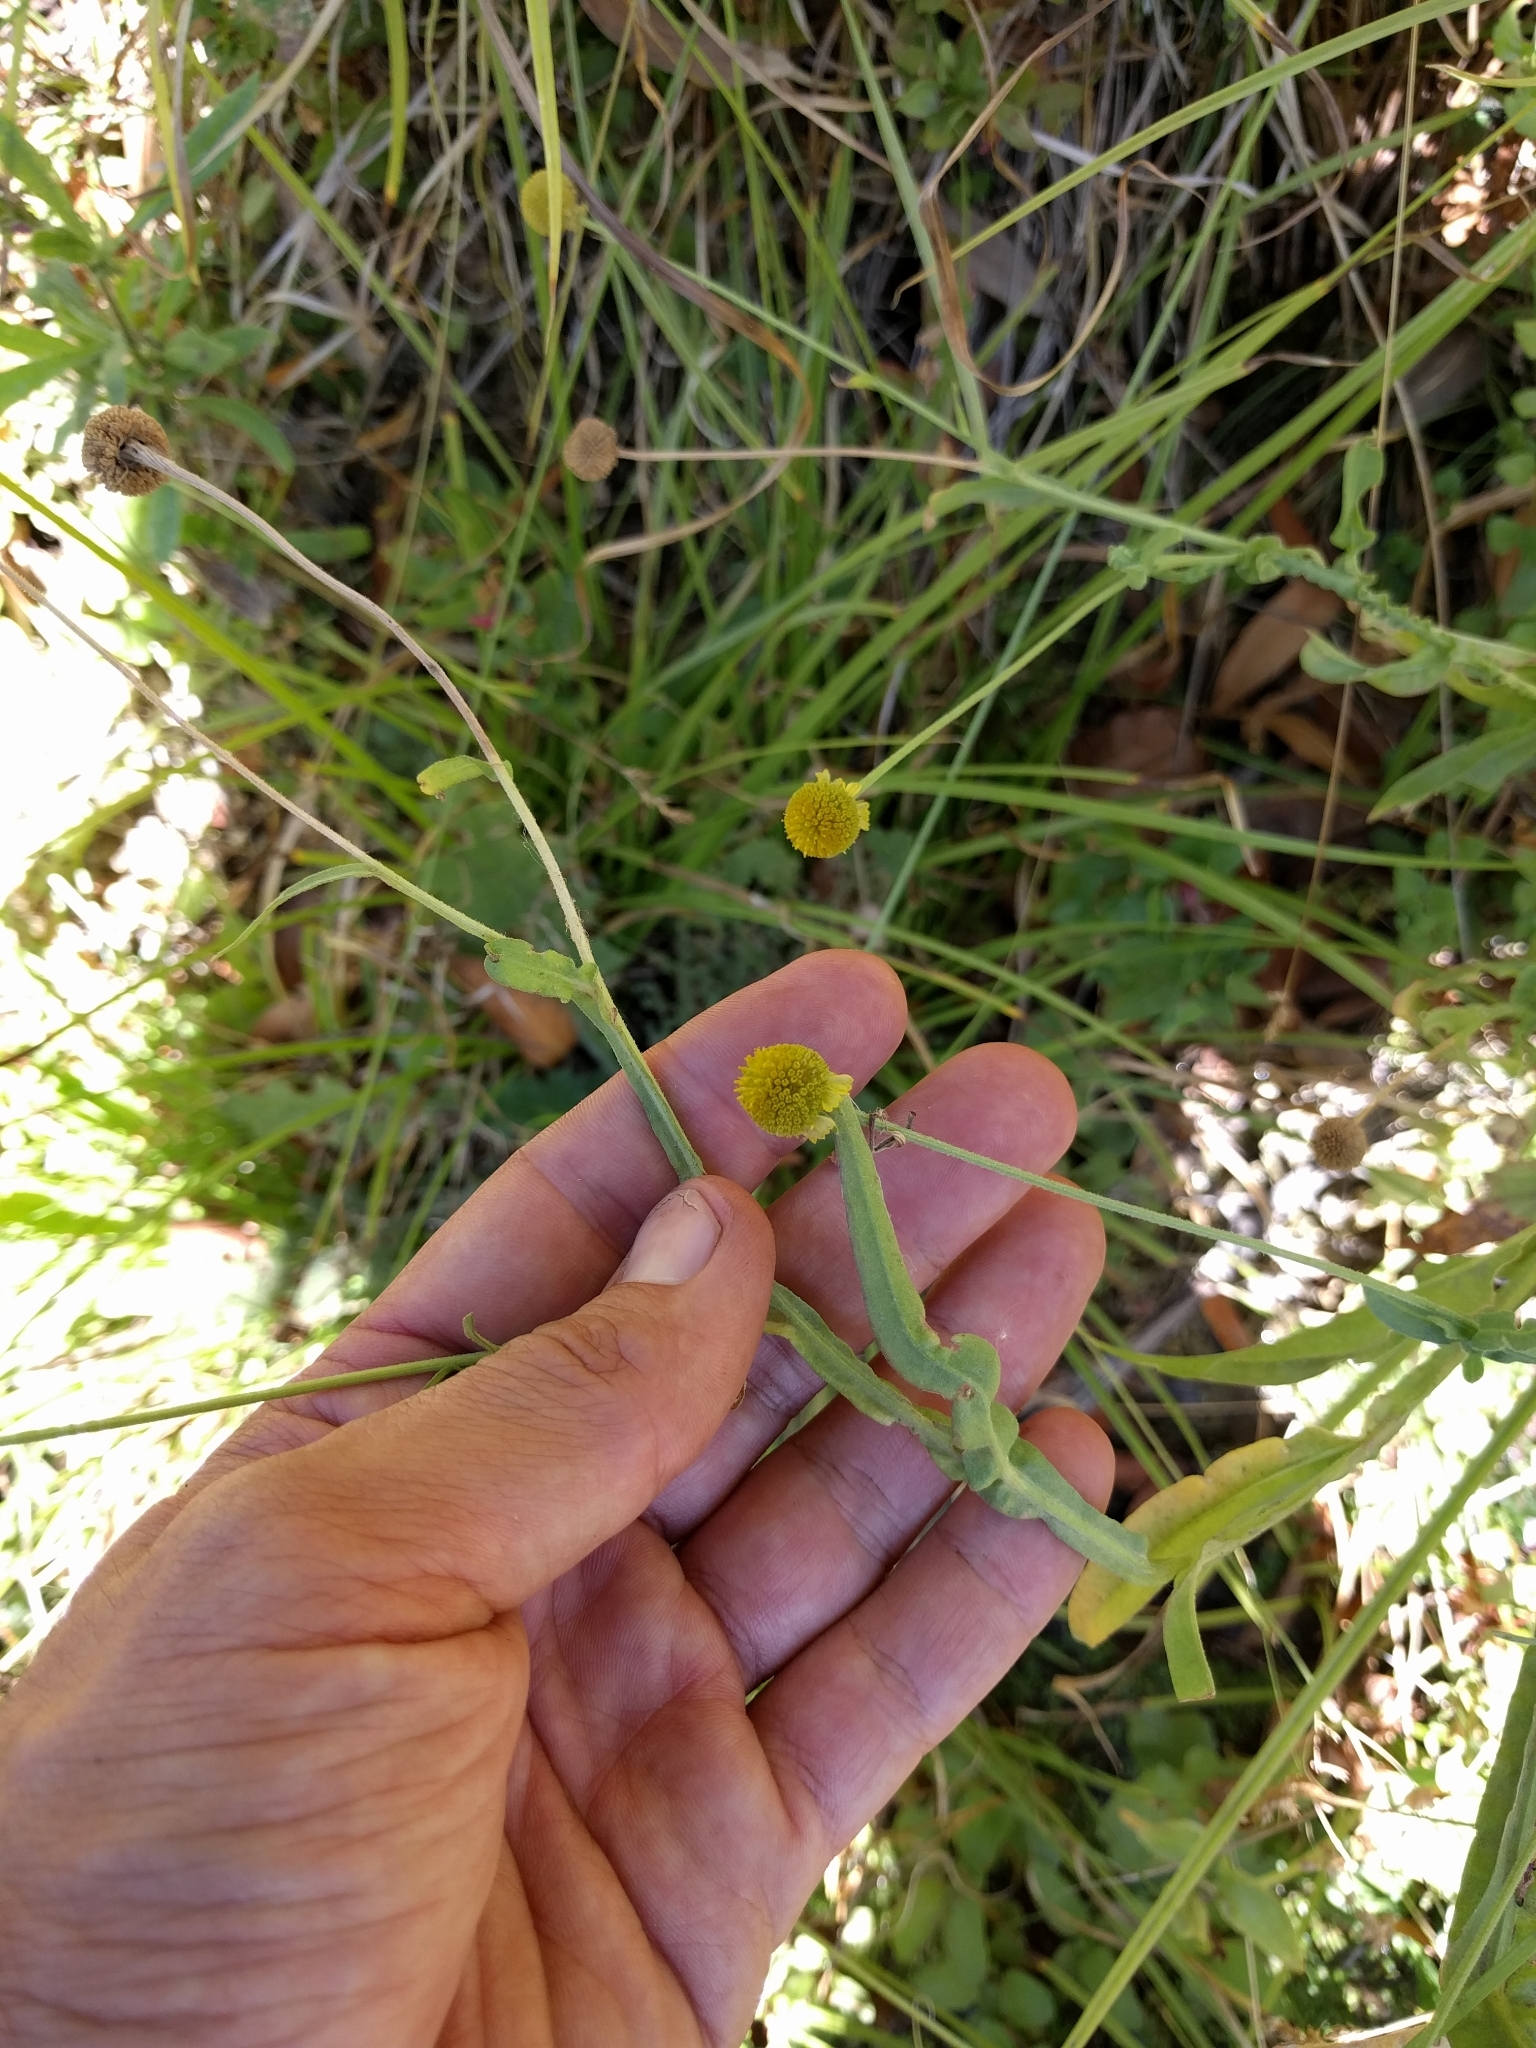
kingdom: Plantae
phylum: Tracheophyta
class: Magnoliopsida
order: Asterales
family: Asteraceae
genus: Helenium
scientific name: Helenium puberulum
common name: Sneezewort
